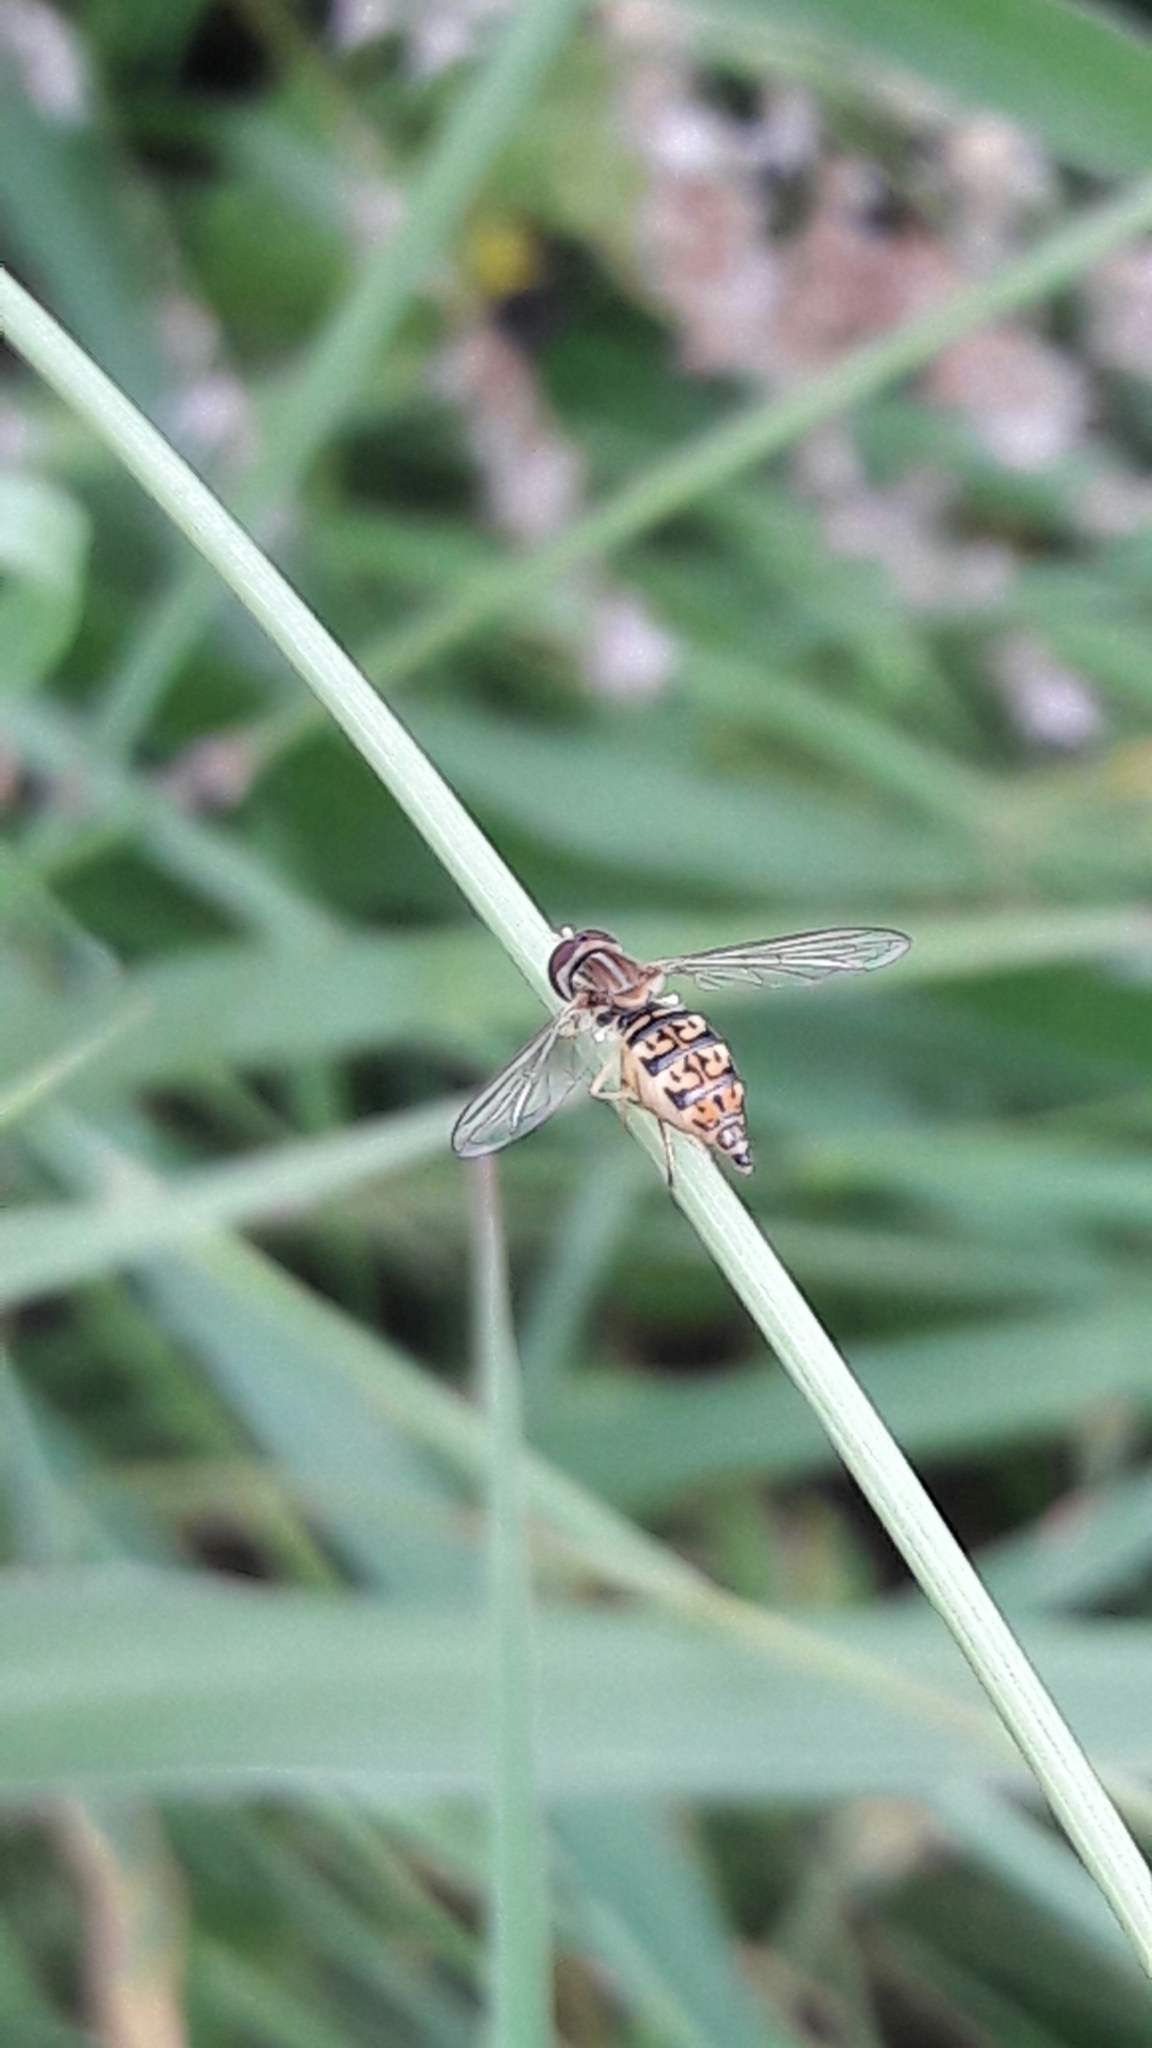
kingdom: Animalia
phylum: Arthropoda
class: Insecta
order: Diptera
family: Syrphidae
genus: Toxomerus
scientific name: Toxomerus
